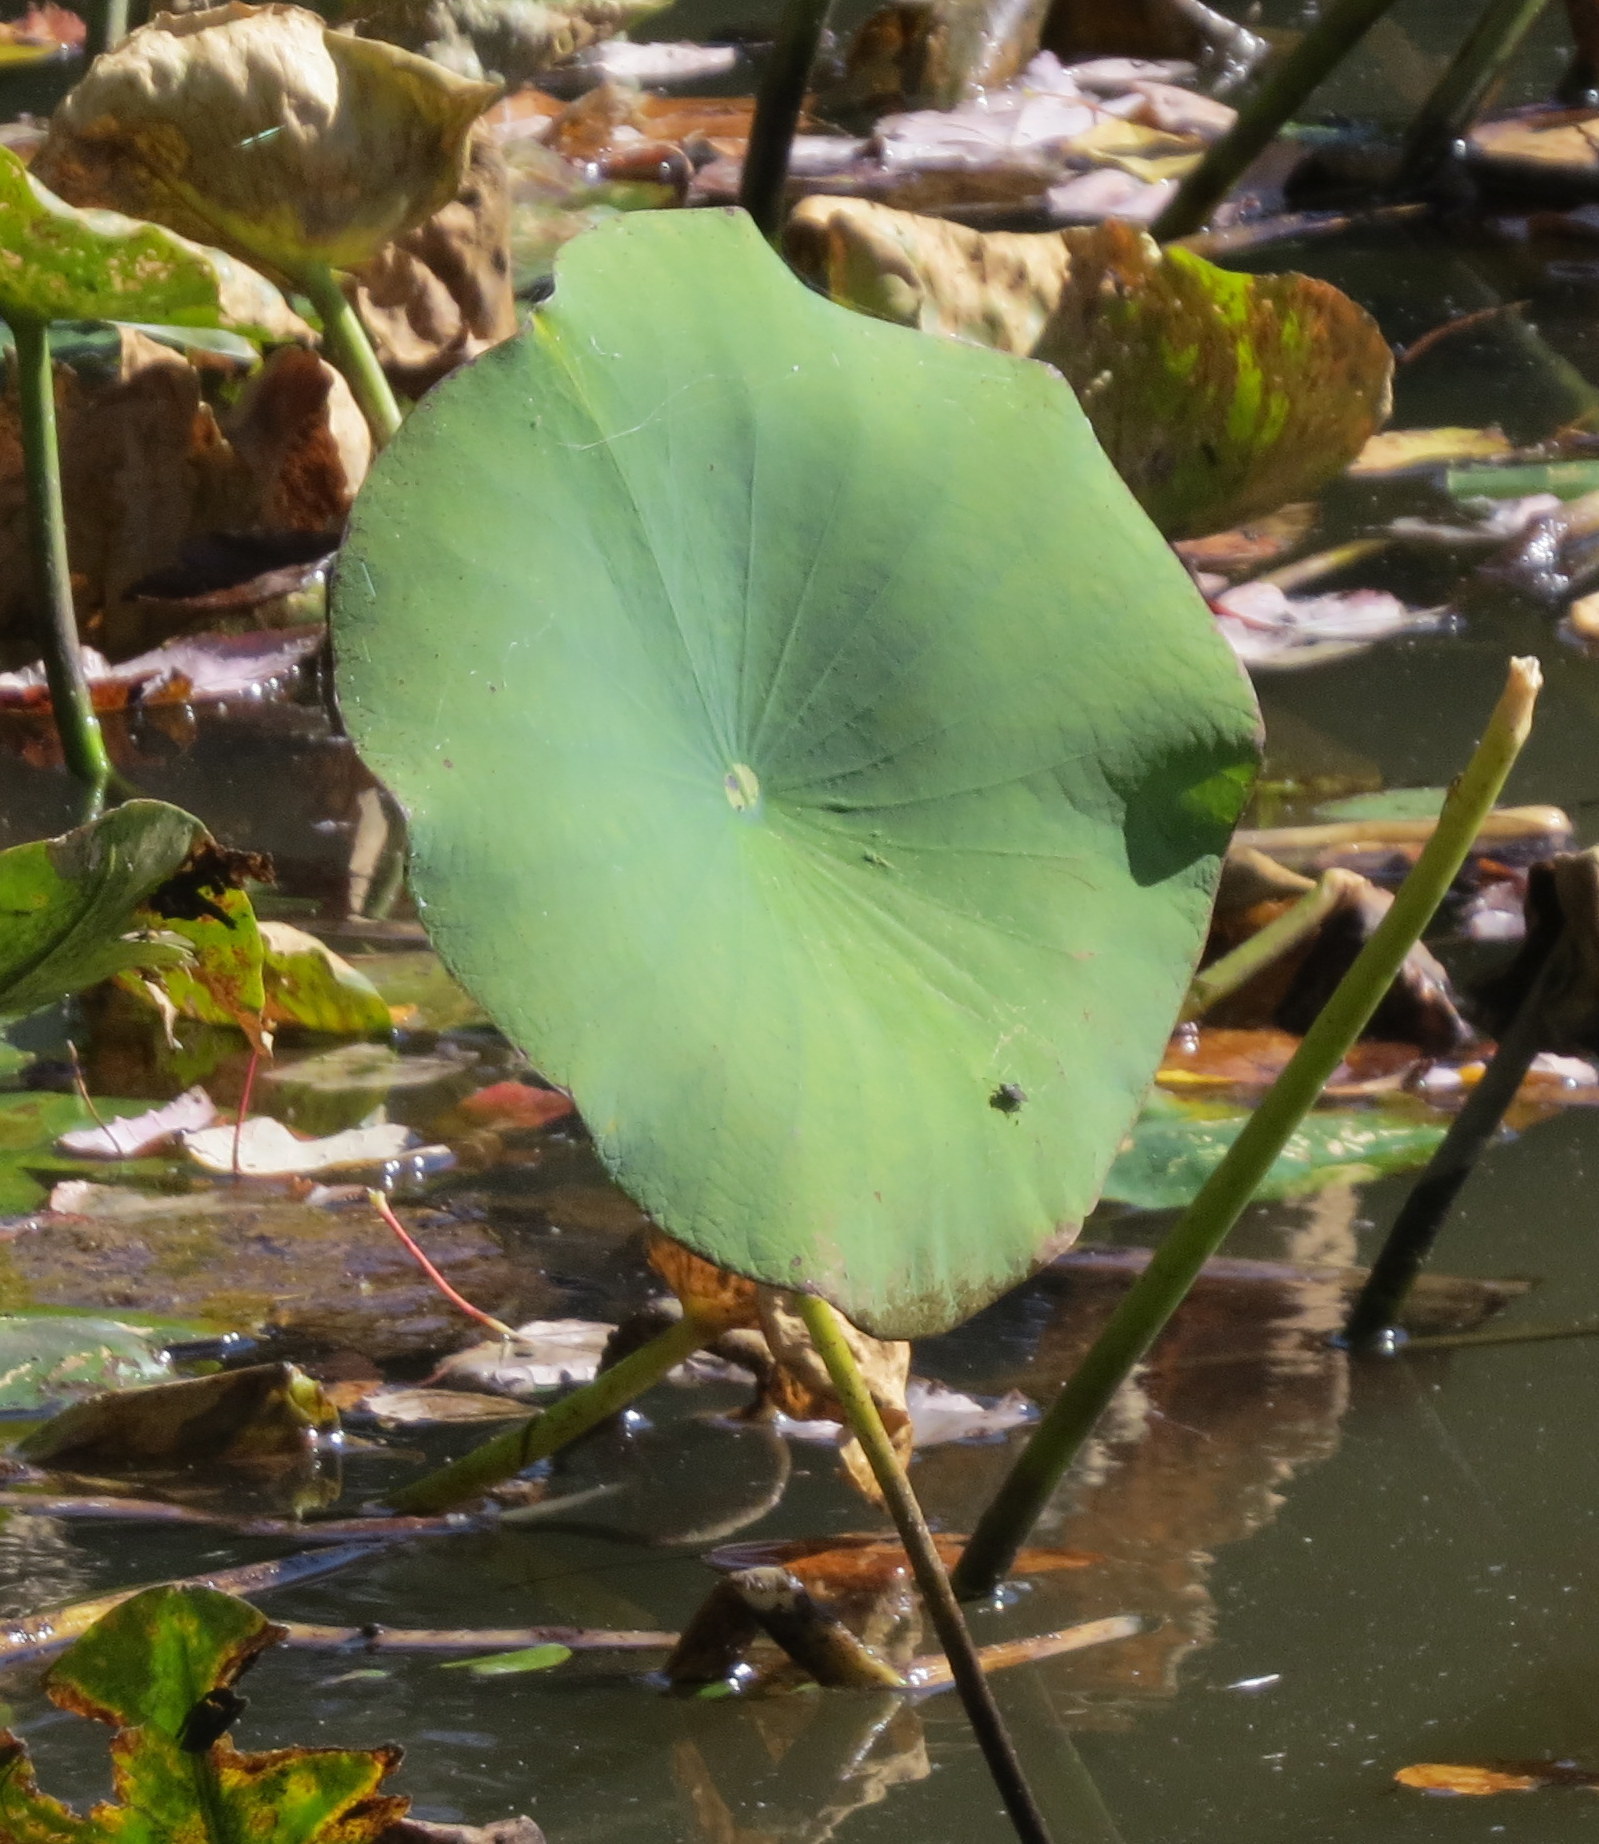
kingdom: Plantae
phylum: Tracheophyta
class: Magnoliopsida
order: Proteales
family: Nelumbonaceae
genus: Nelumbo
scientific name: Nelumbo lutea
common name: American lotus
